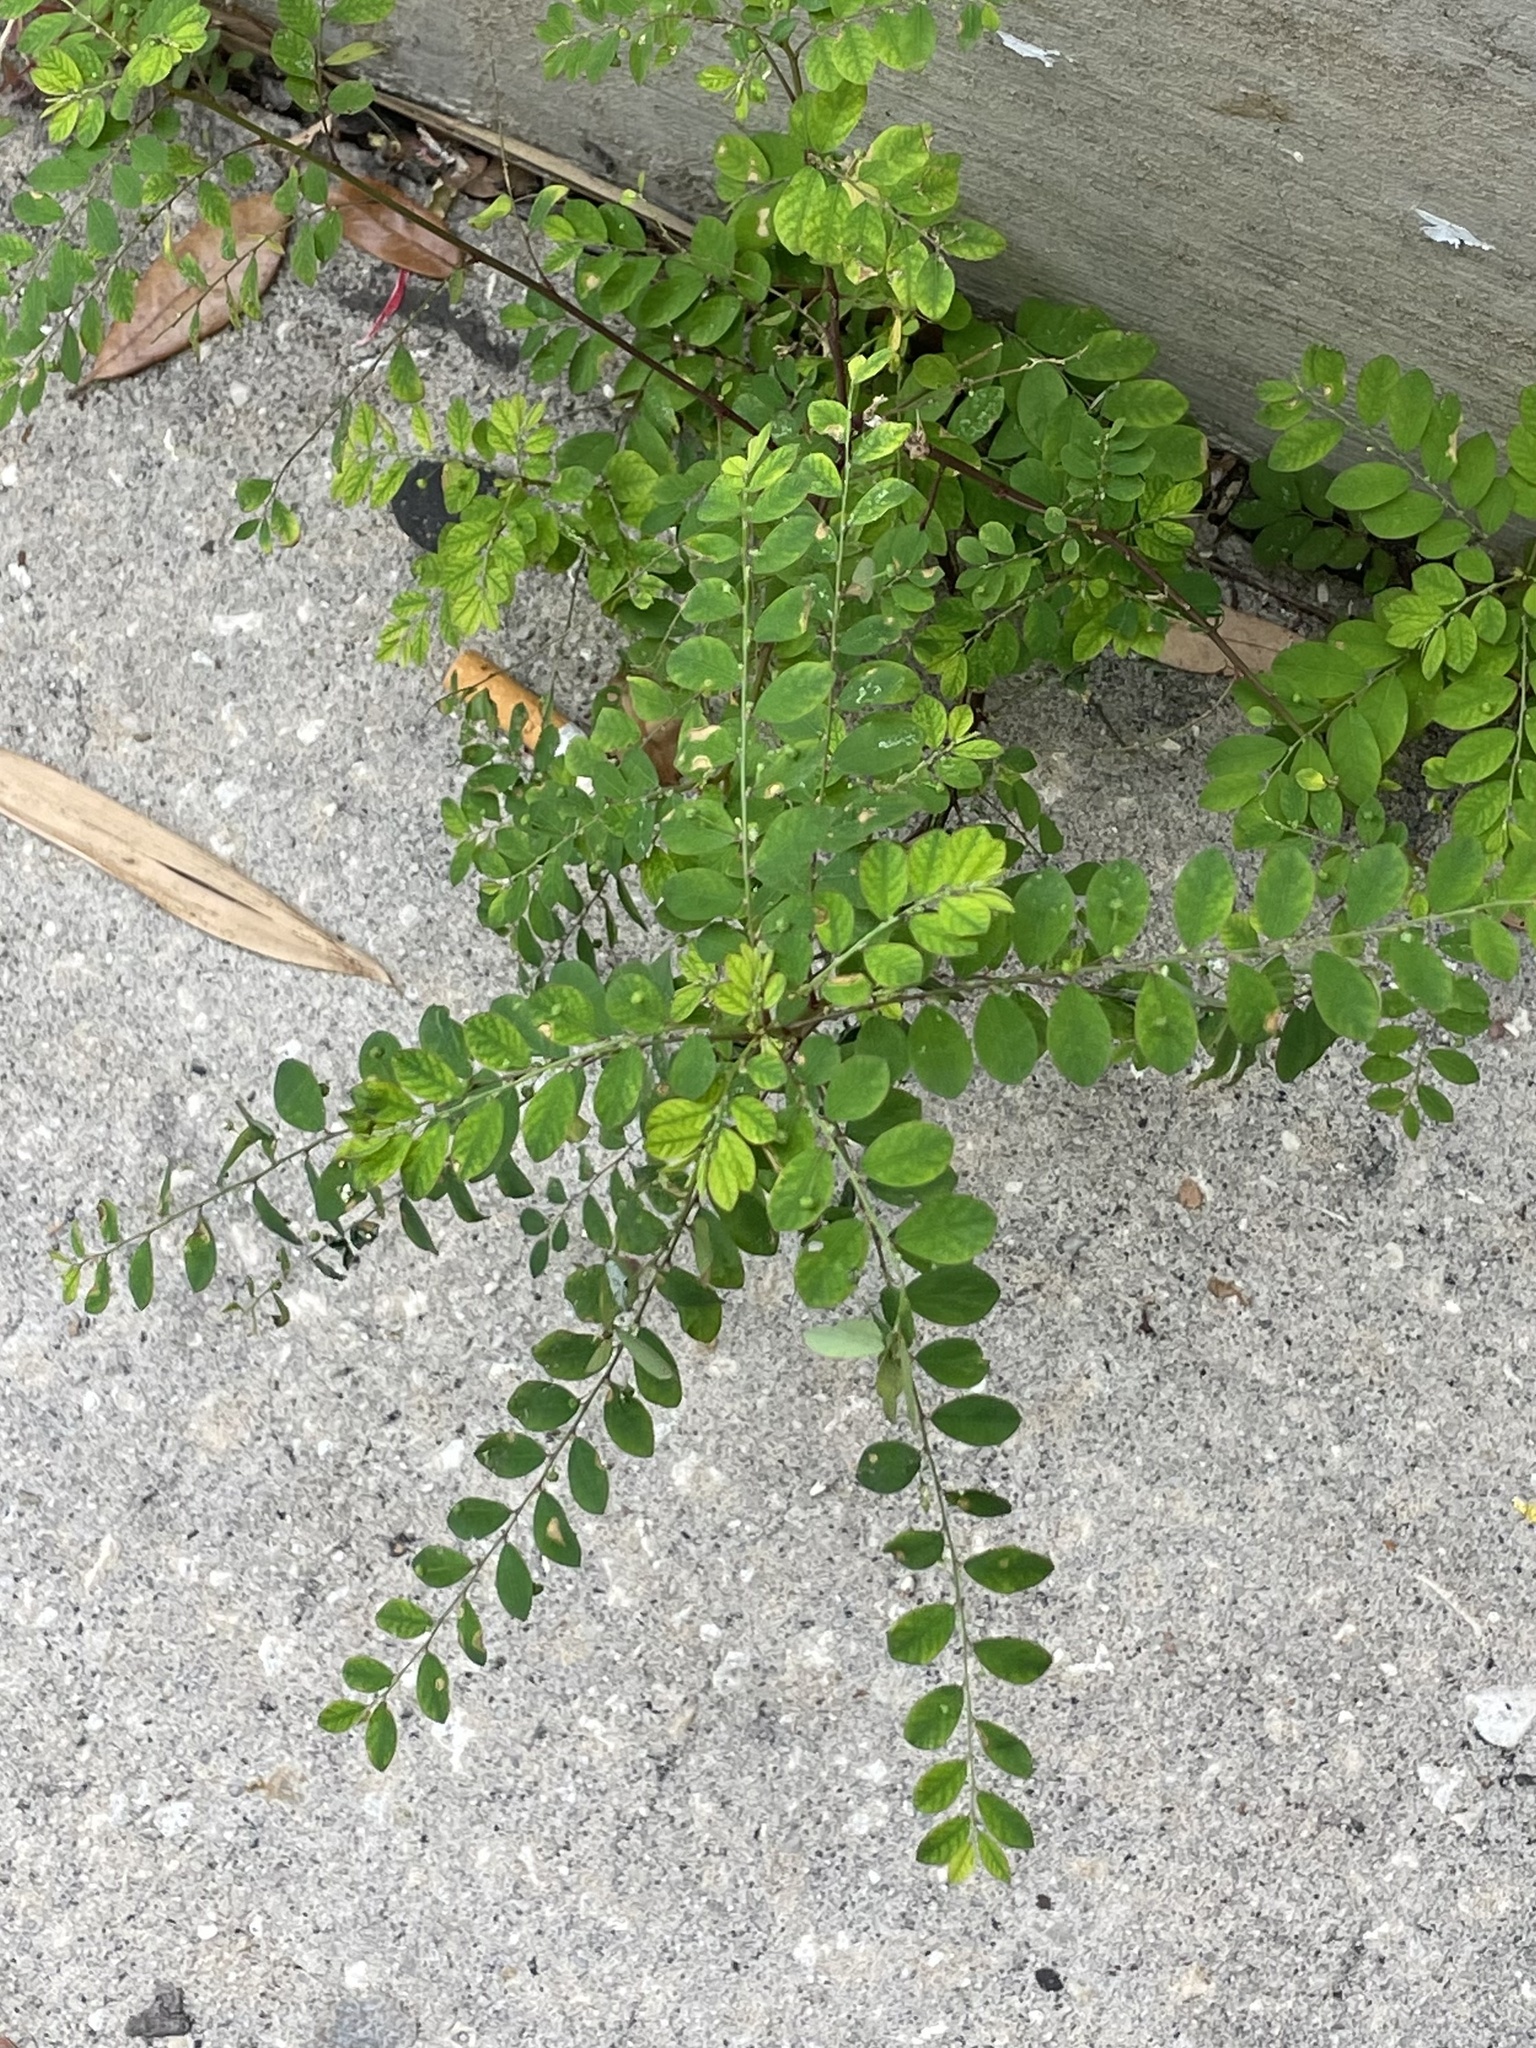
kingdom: Plantae
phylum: Tracheophyta
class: Magnoliopsida
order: Malpighiales
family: Phyllanthaceae
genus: Phyllanthus
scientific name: Phyllanthus tenellus
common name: Mascarene island leaf-flower
